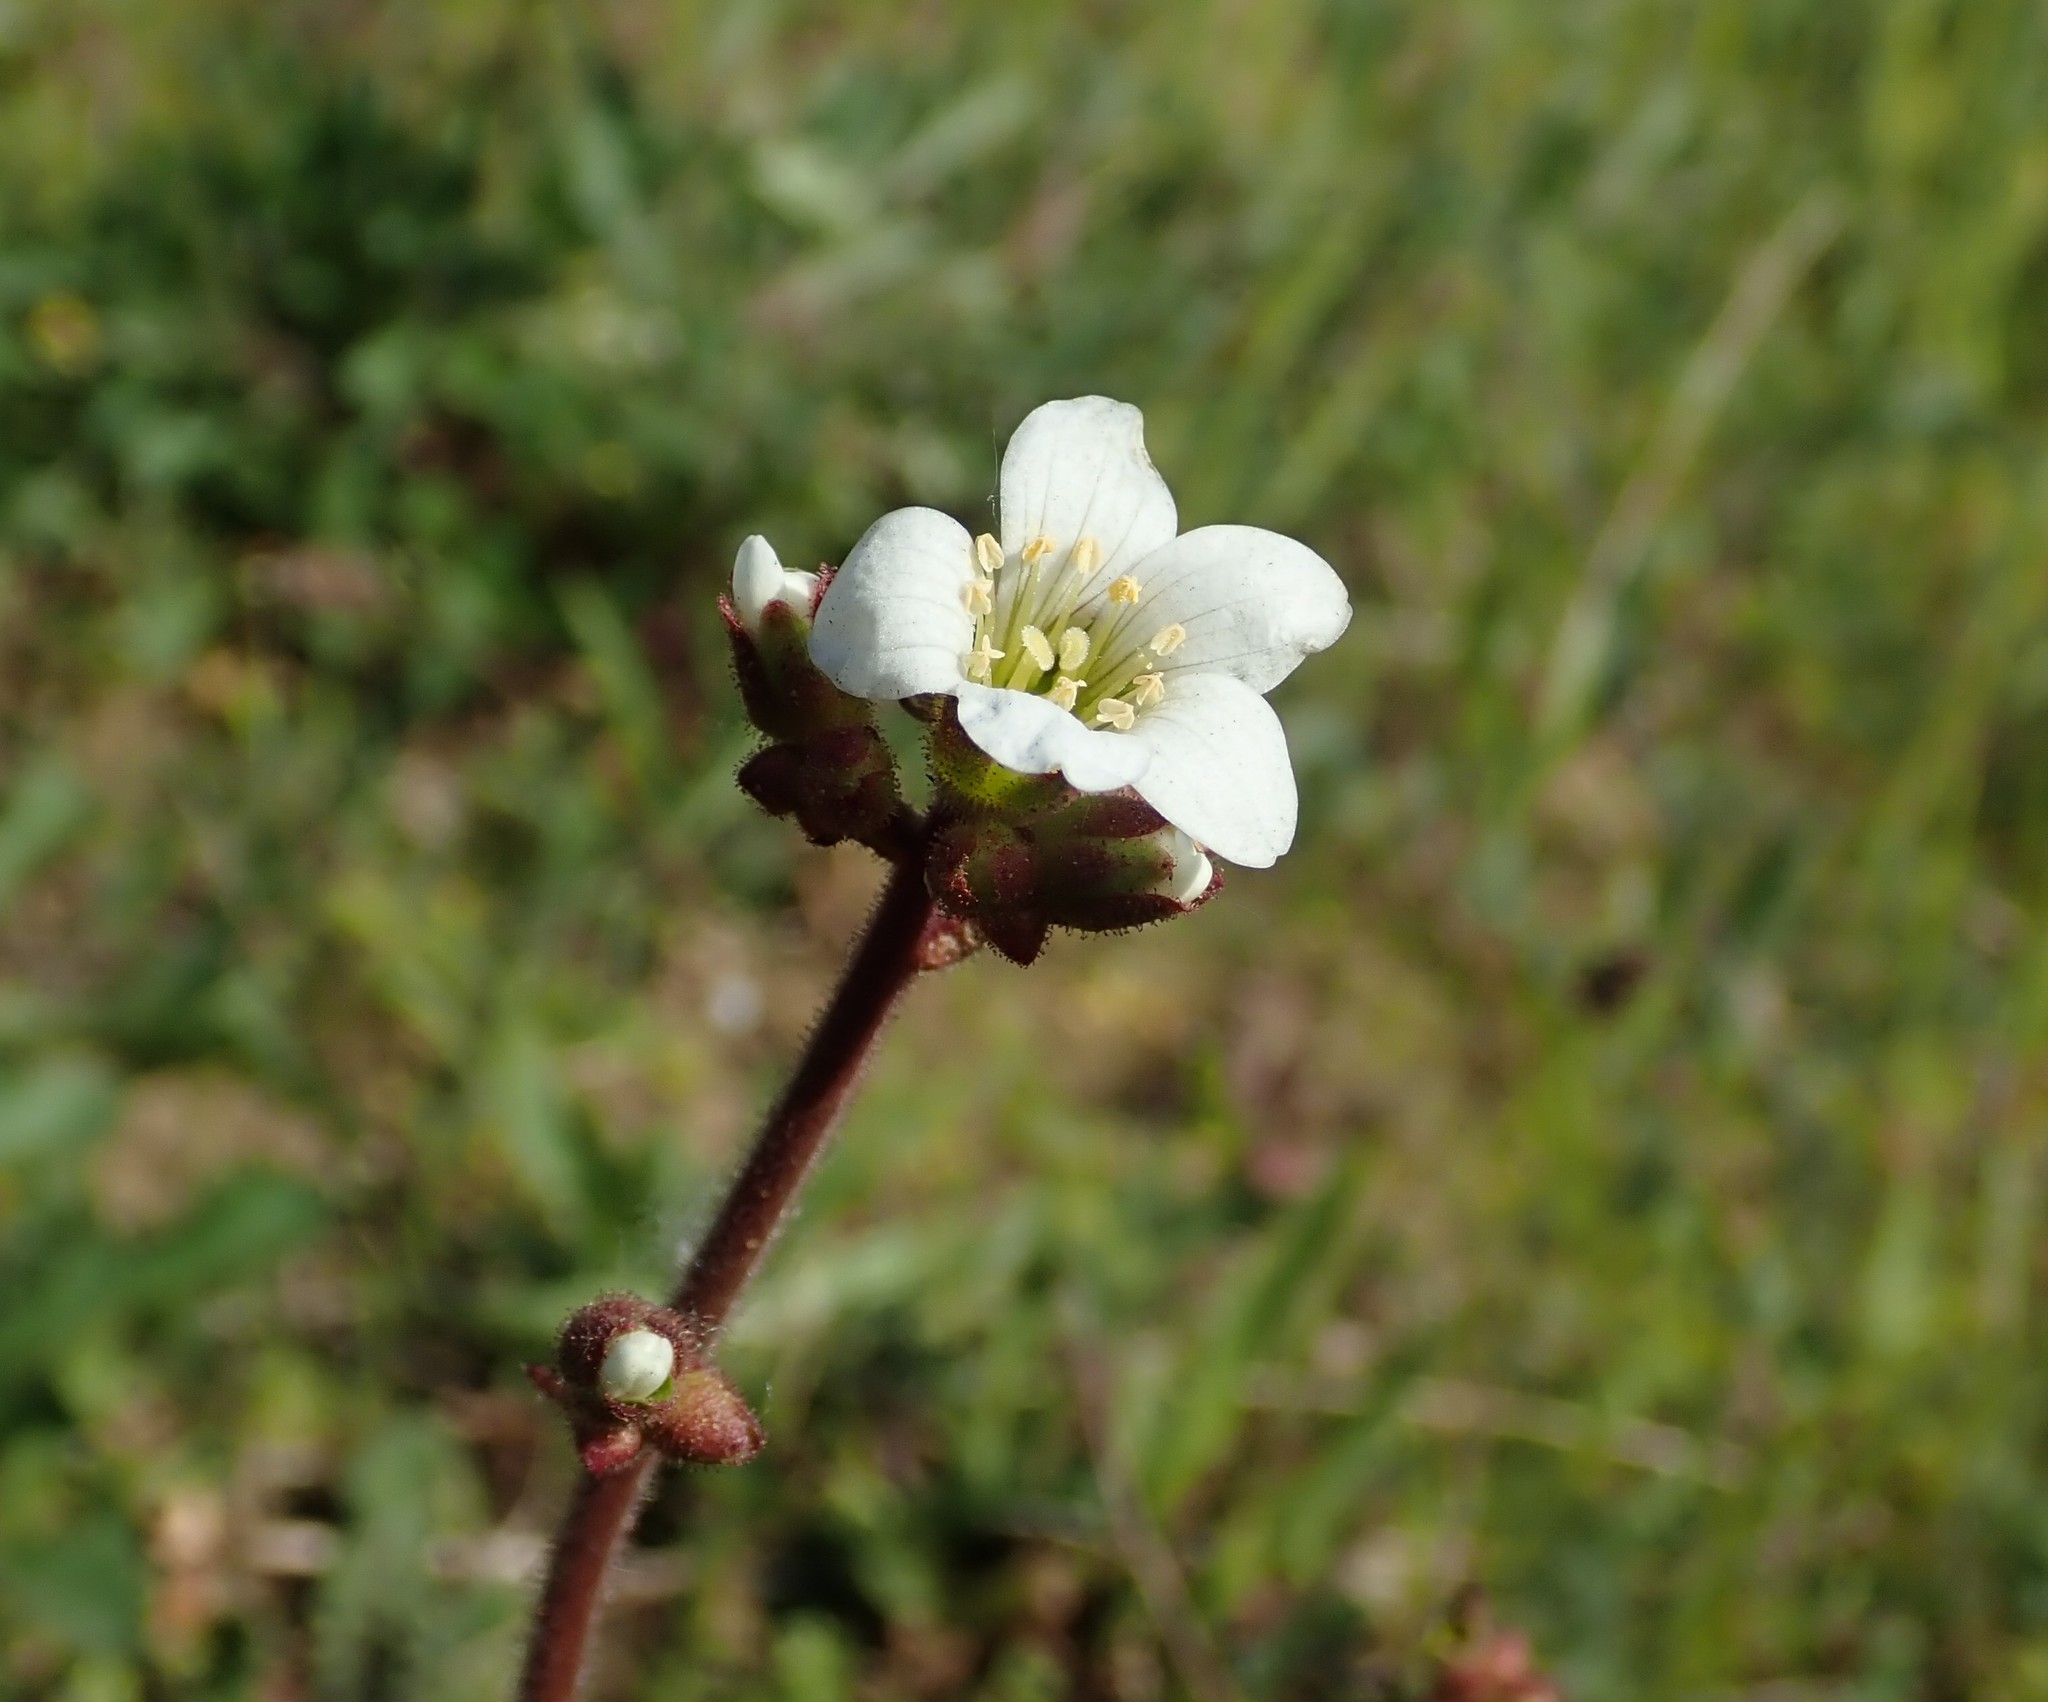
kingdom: Plantae
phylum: Tracheophyta
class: Magnoliopsida
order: Saxifragales
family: Saxifragaceae
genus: Saxifraga
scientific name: Saxifraga granulata
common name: Meadow saxifrage
